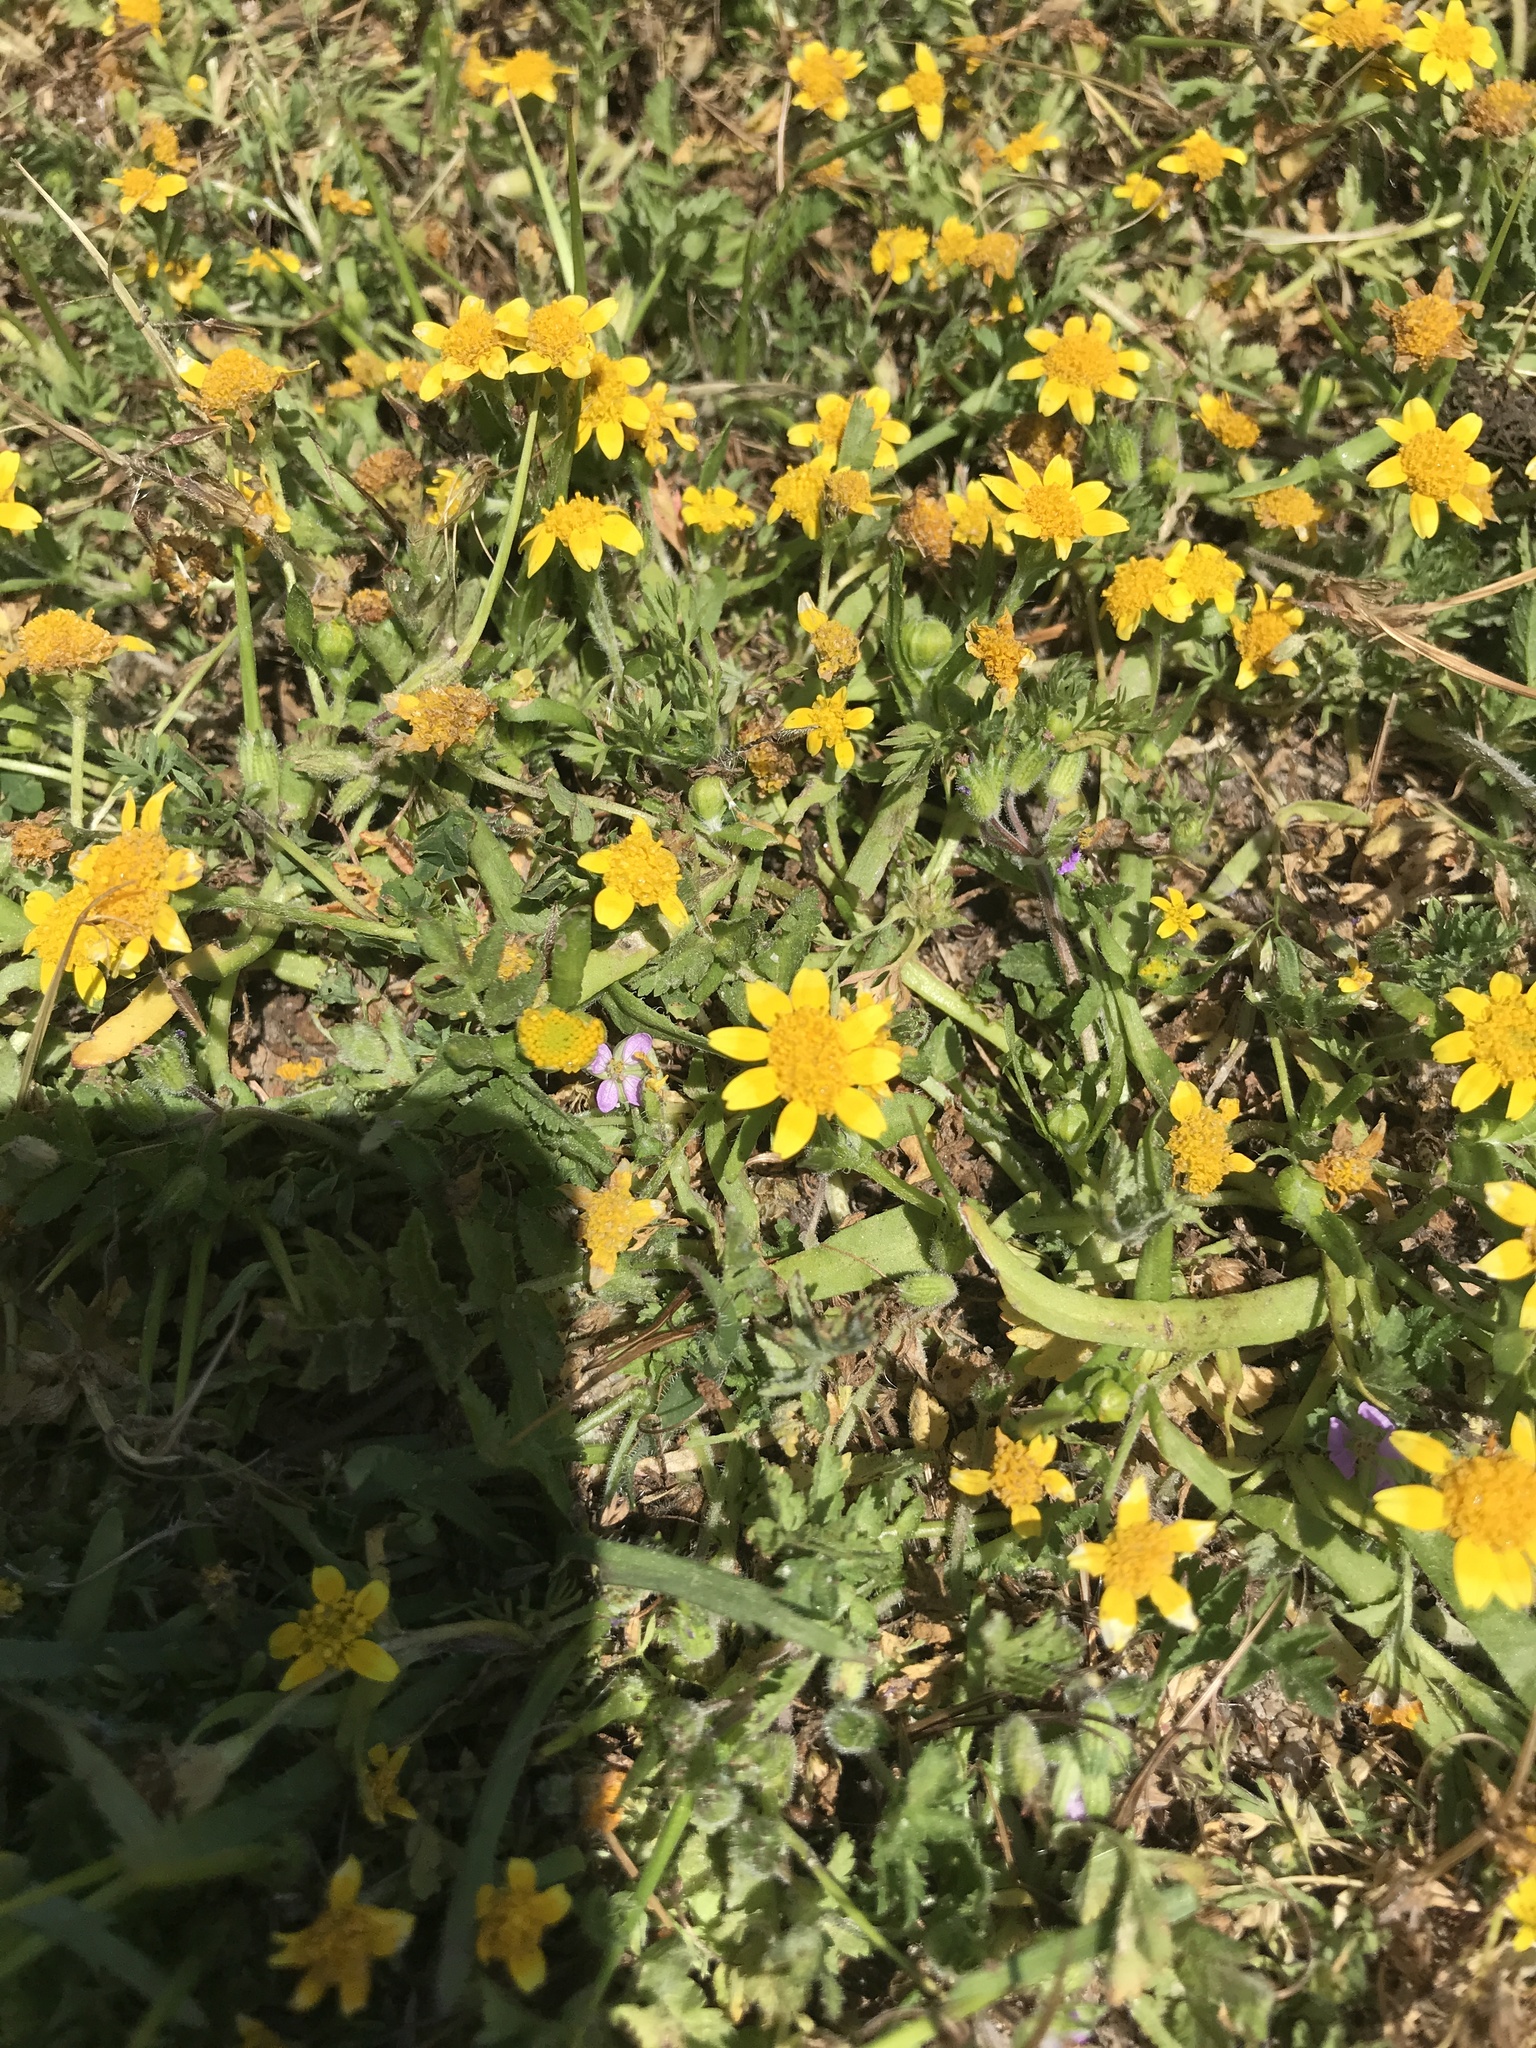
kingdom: Plantae
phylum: Tracheophyta
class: Magnoliopsida
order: Asterales
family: Asteraceae
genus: Lasthenia
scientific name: Lasthenia minor
